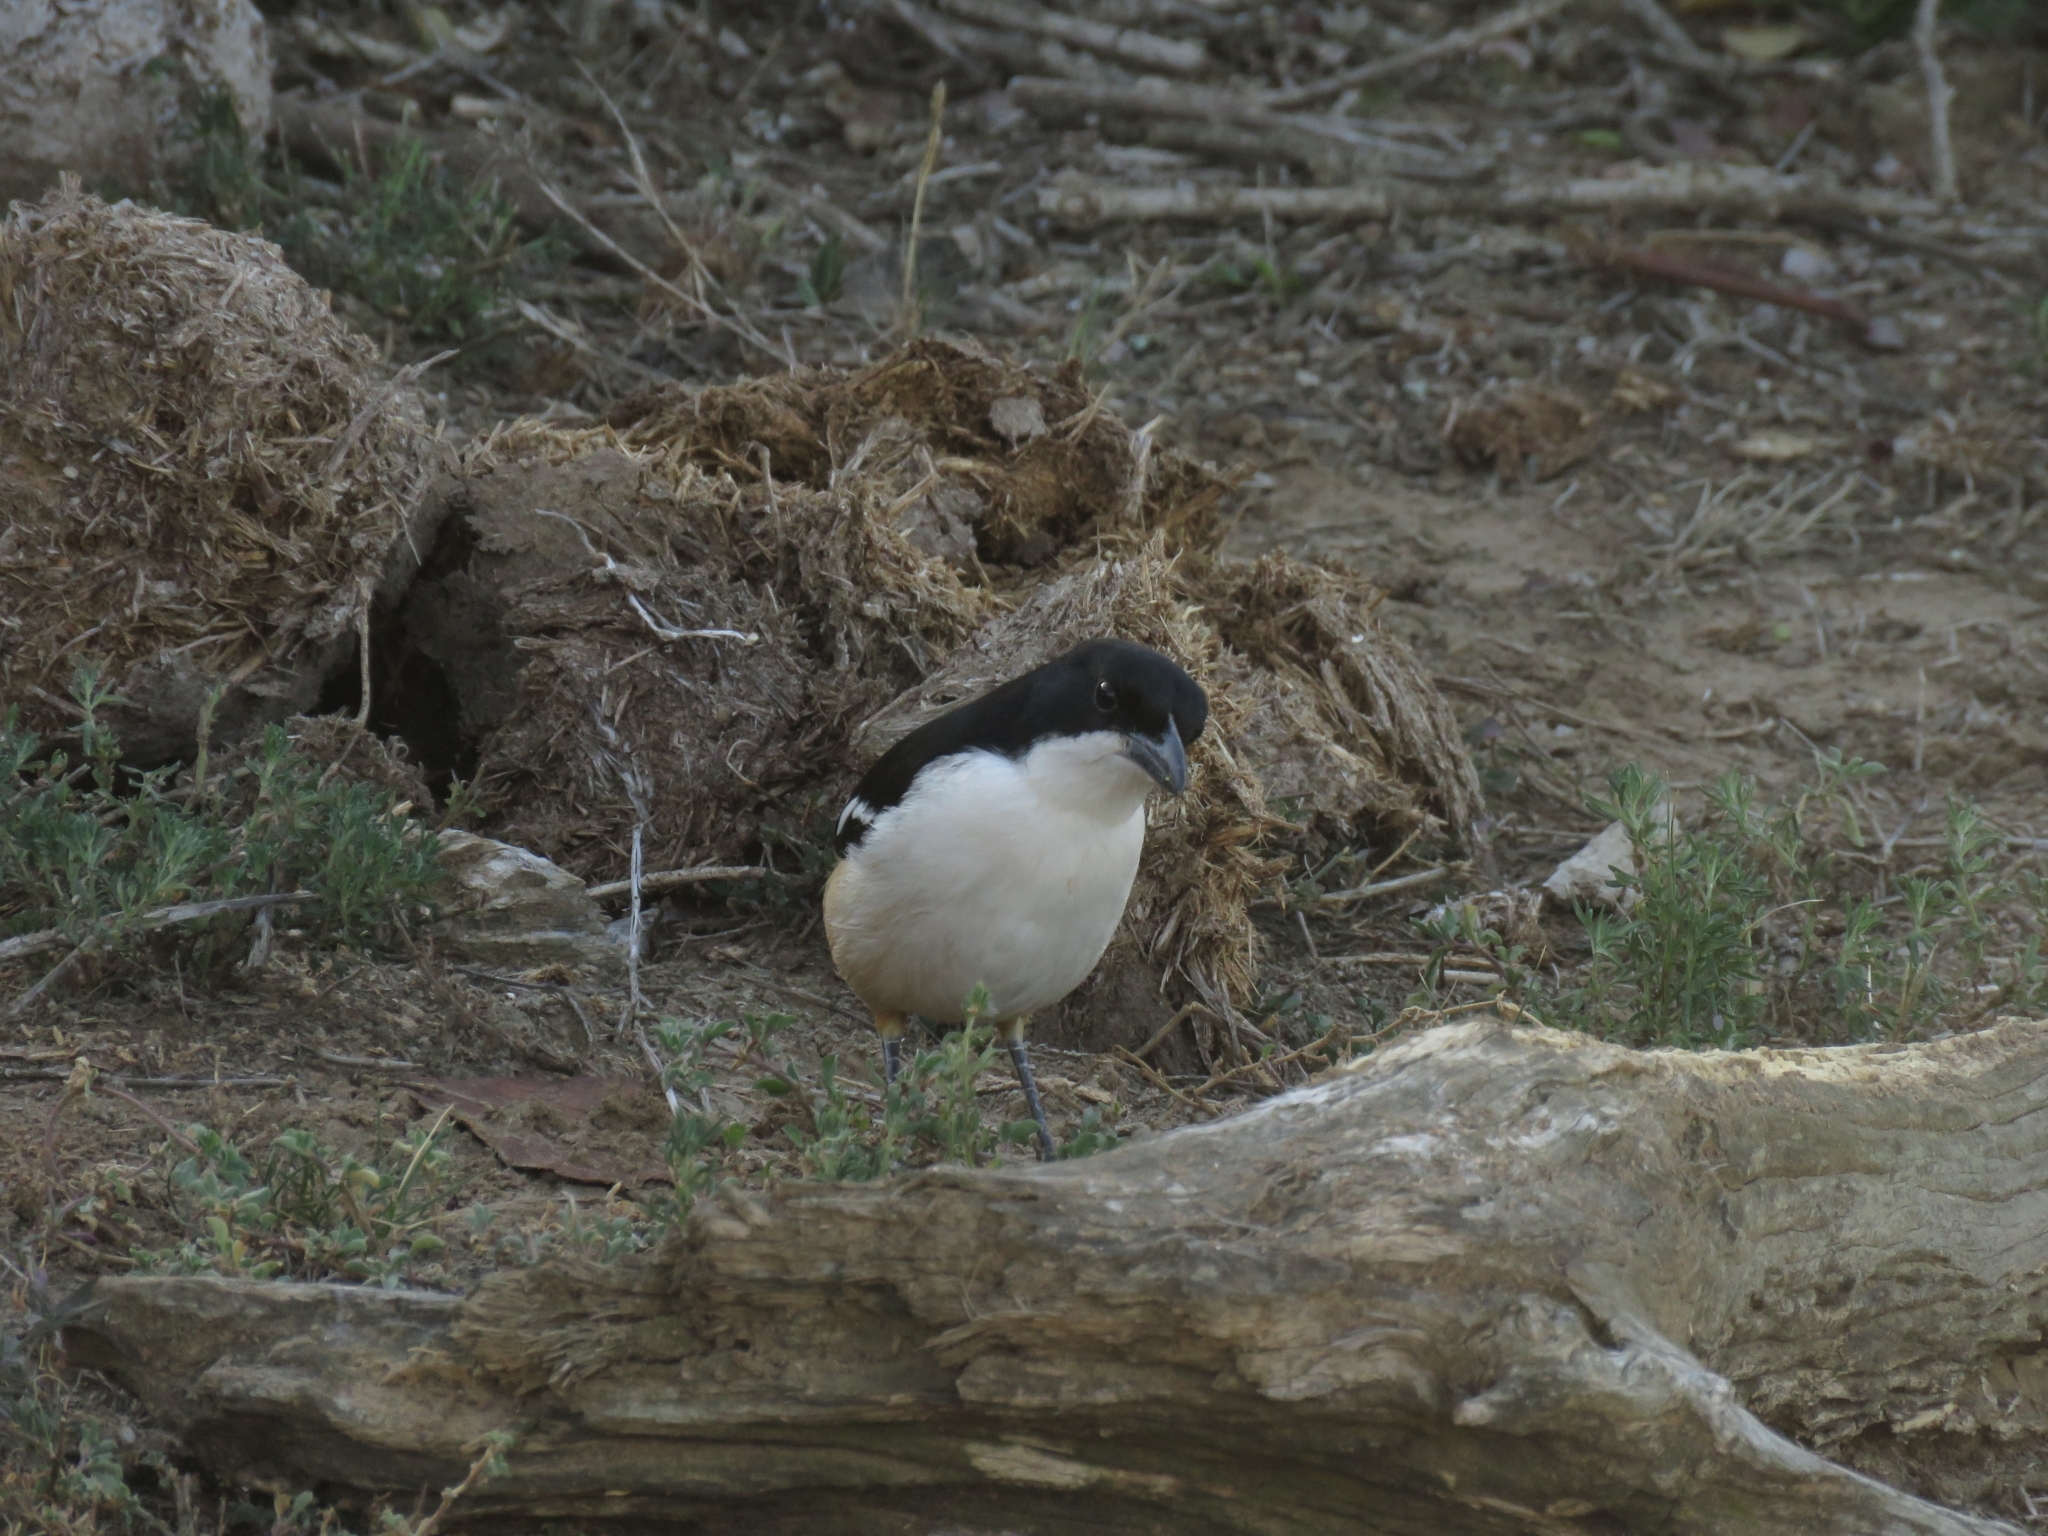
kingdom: Animalia
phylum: Chordata
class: Aves
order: Passeriformes
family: Malaconotidae
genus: Laniarius
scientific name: Laniarius ferrugineus
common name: Southern boubou
